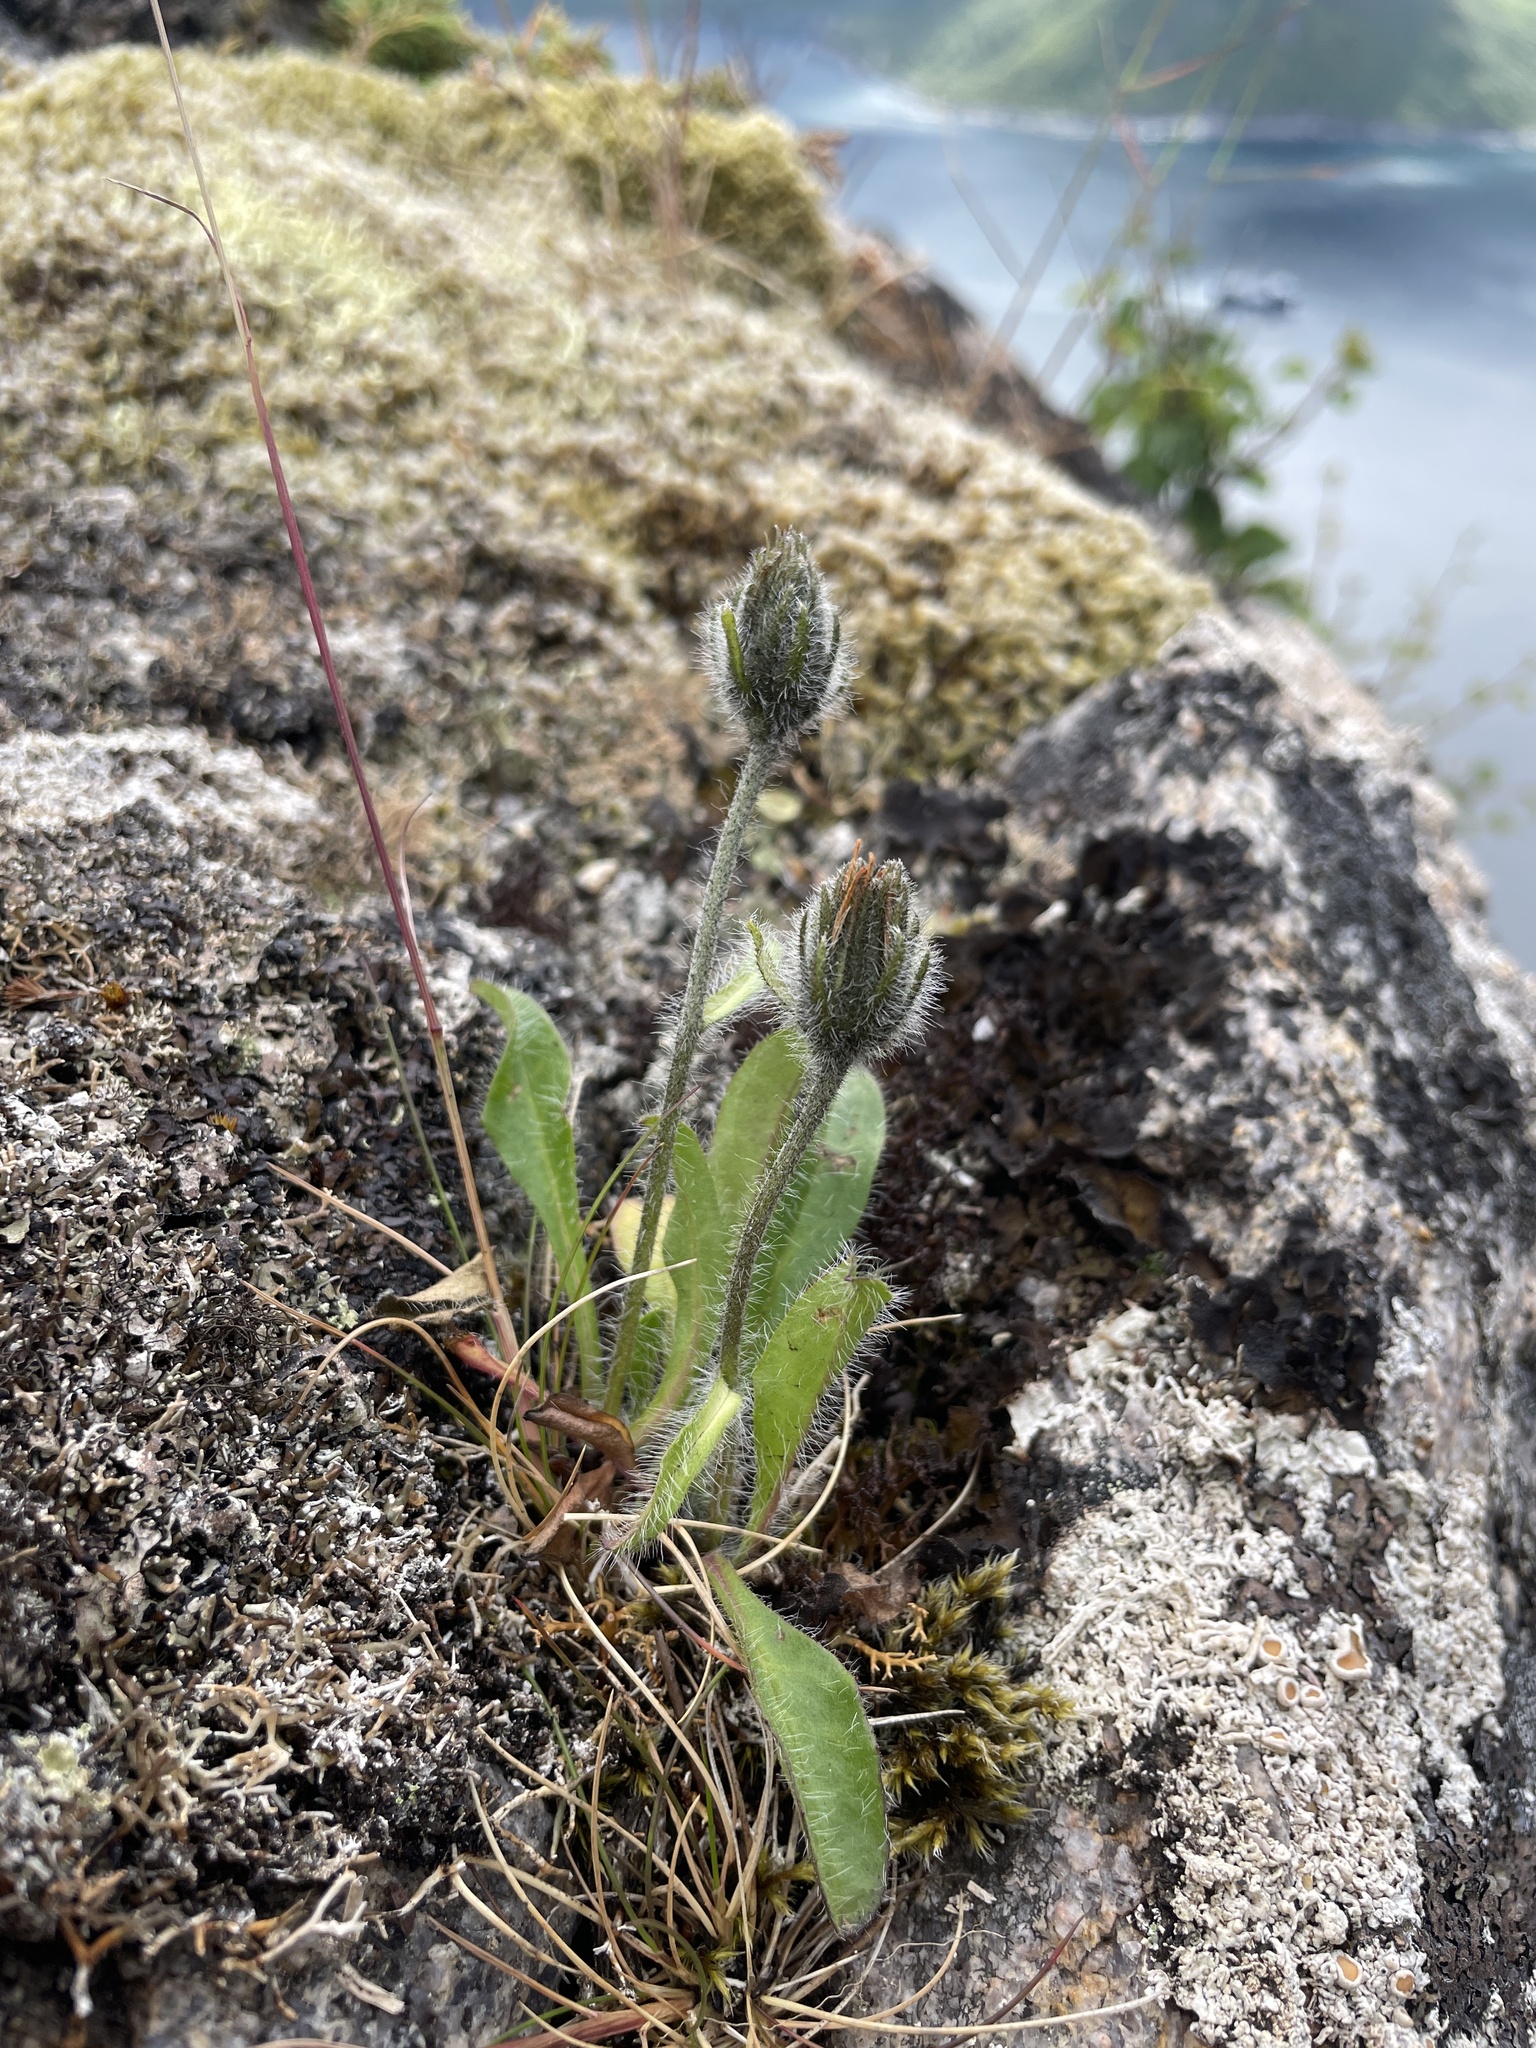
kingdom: Plantae
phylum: Tracheophyta
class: Magnoliopsida
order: Asterales
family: Asteraceae
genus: Hieracium
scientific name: Hieracium alpinum
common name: Alpine hawkweed
